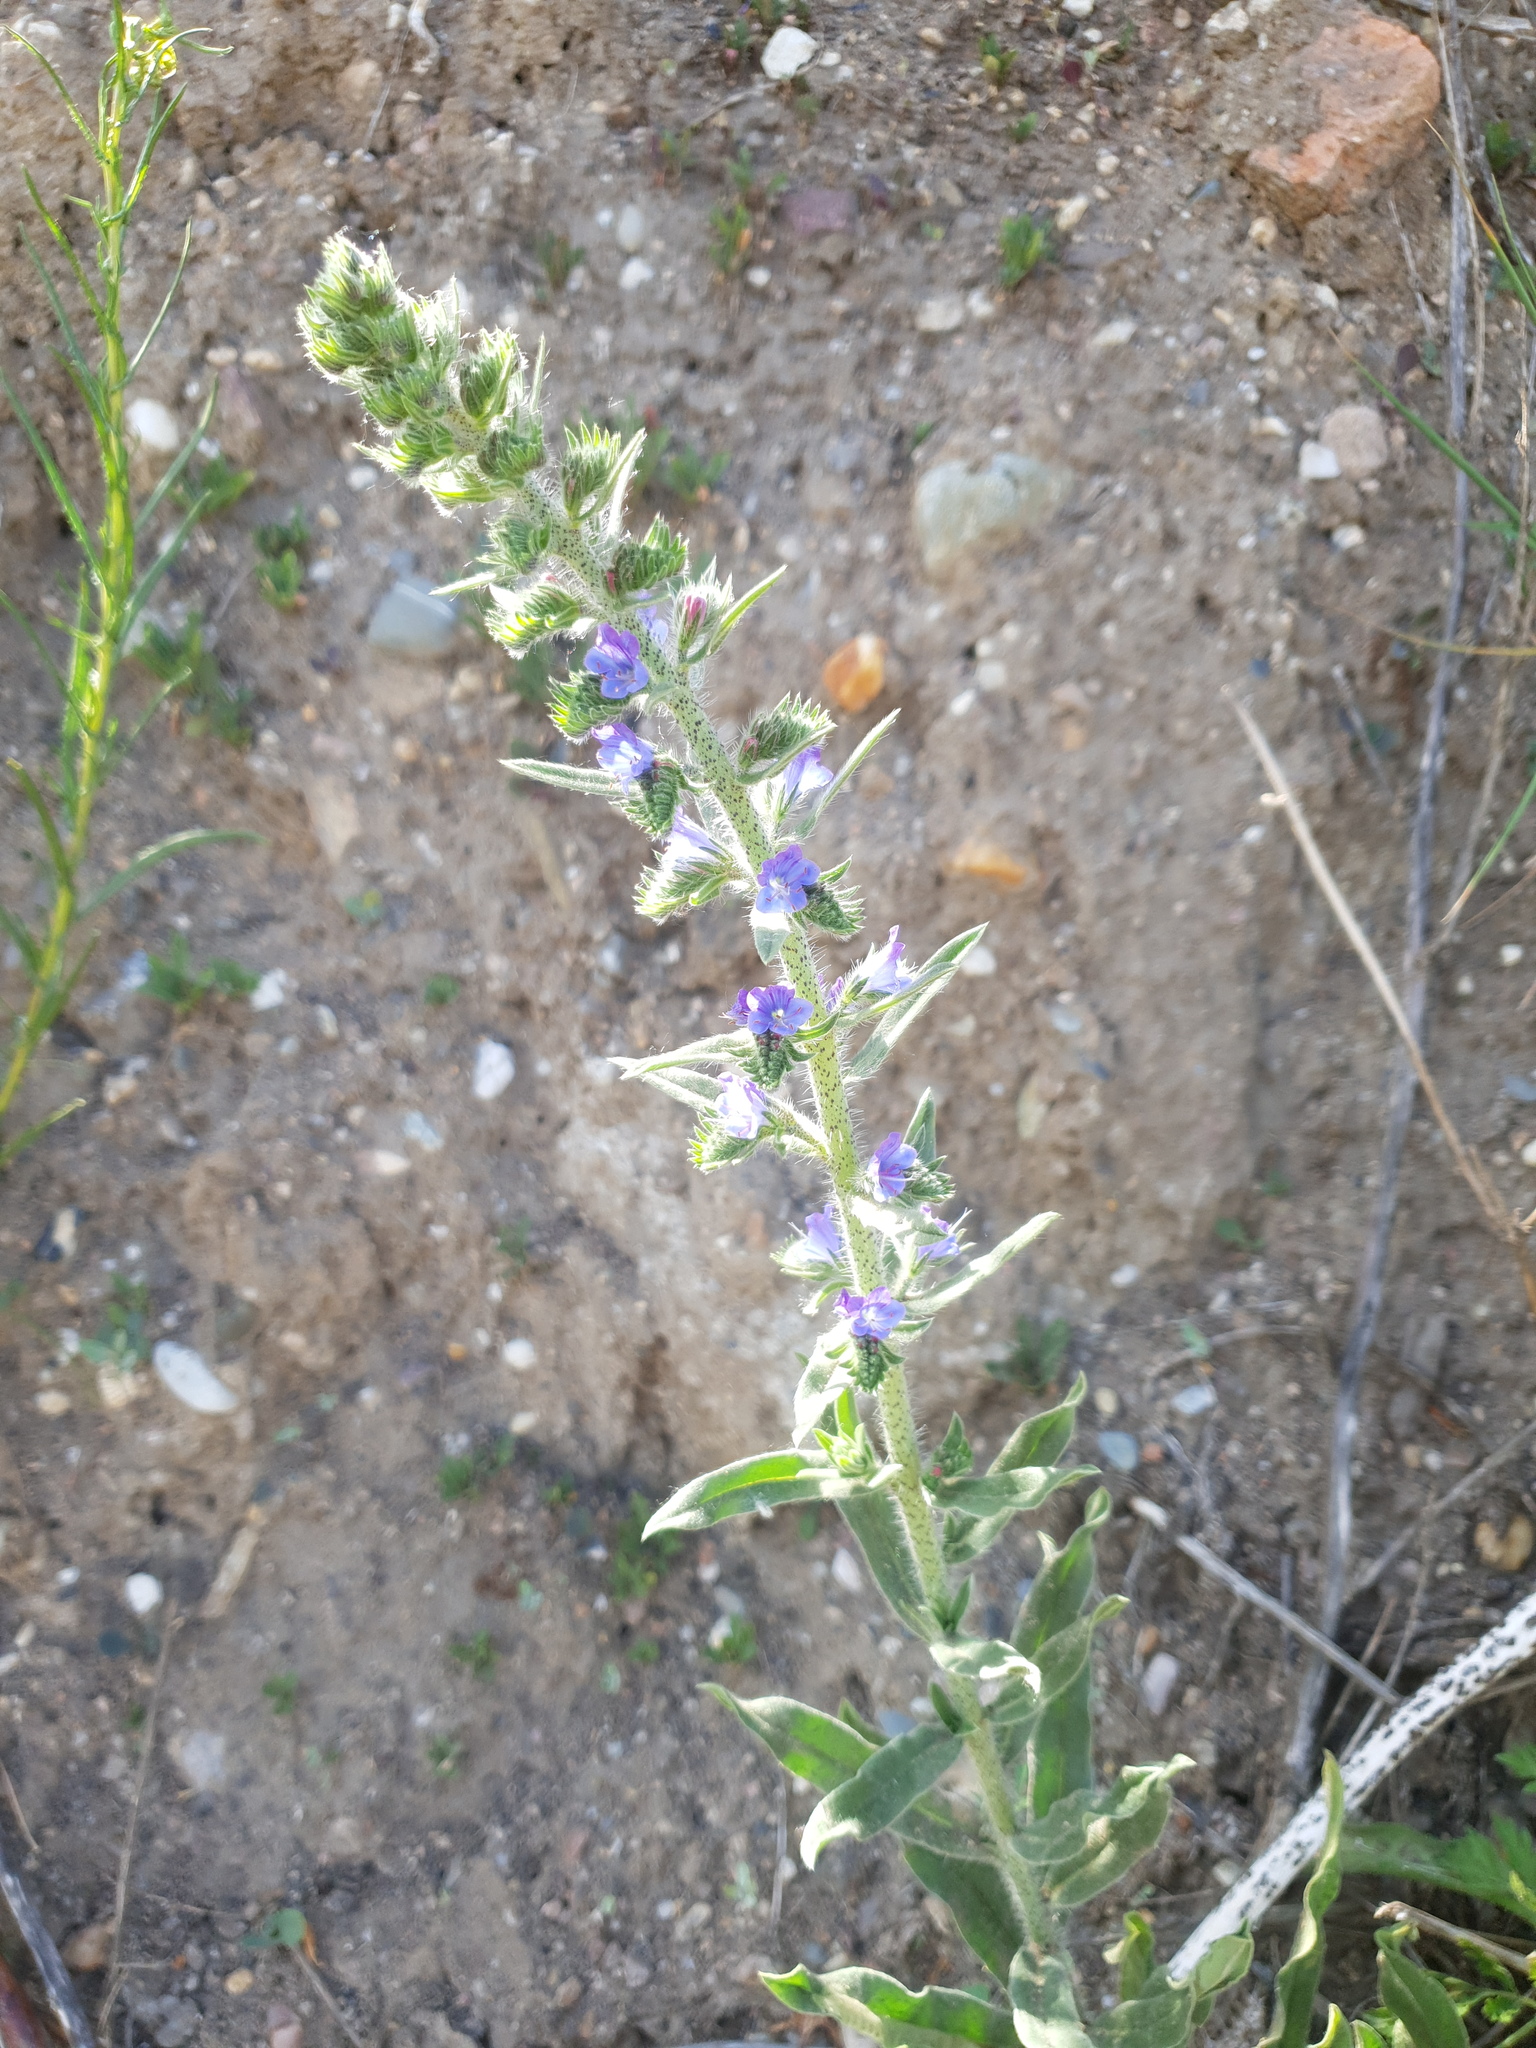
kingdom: Plantae
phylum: Tracheophyta
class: Magnoliopsida
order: Boraginales
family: Boraginaceae
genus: Echium
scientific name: Echium vulgare
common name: Common viper's bugloss
